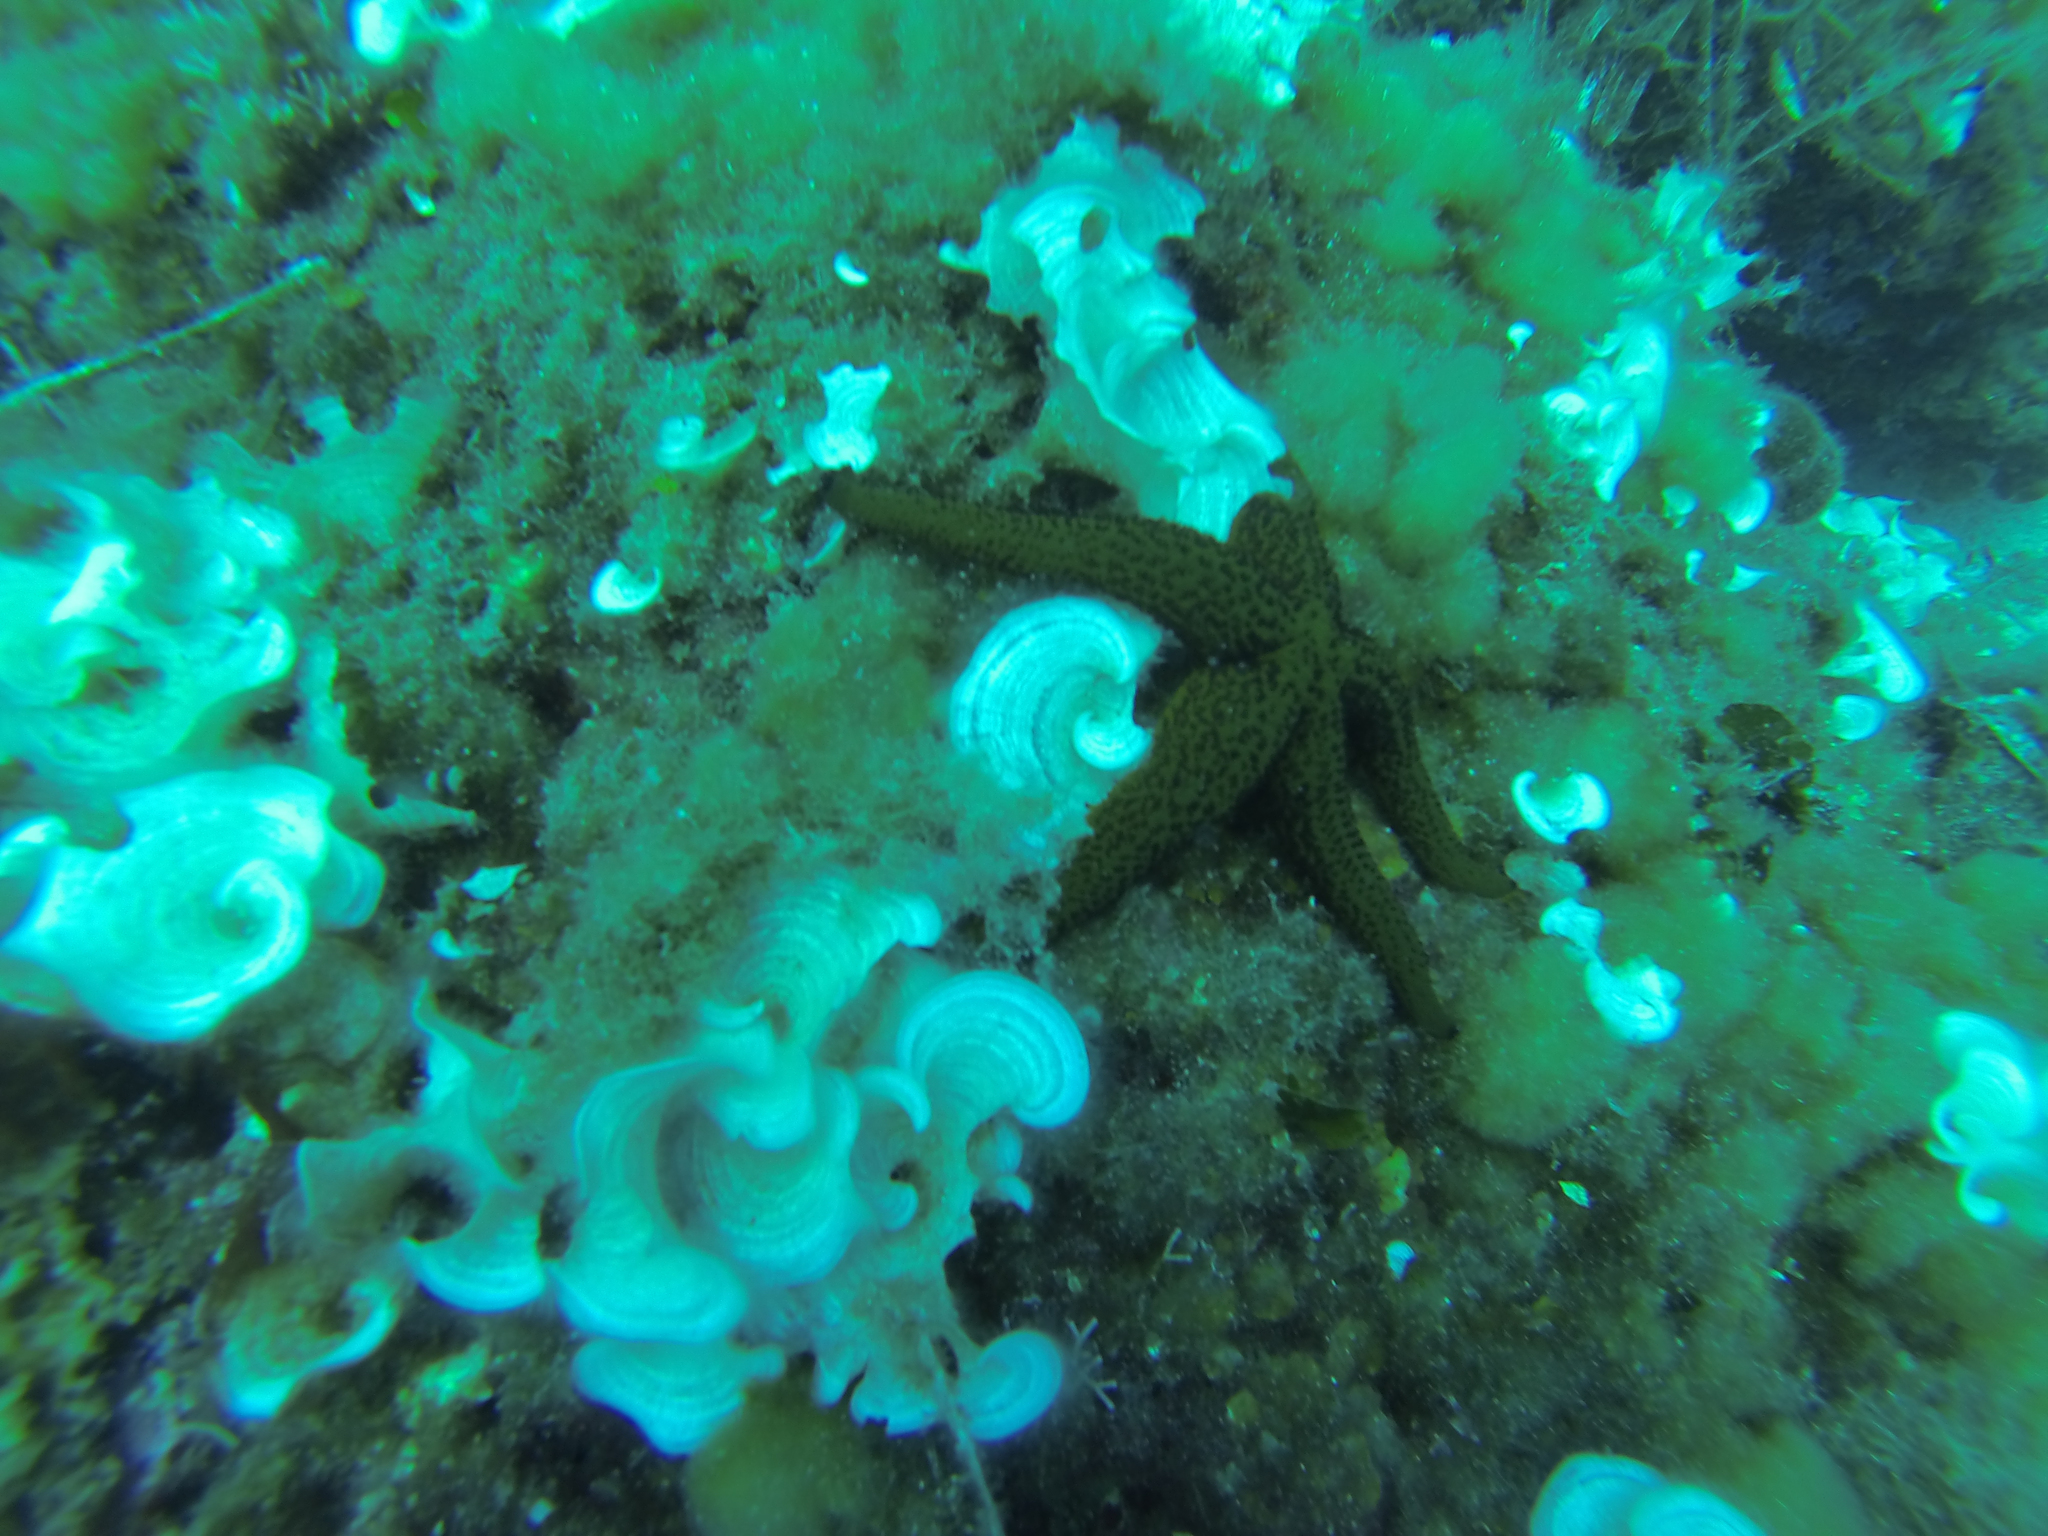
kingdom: Animalia
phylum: Echinodermata
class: Asteroidea
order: Spinulosida
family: Echinasteridae
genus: Echinaster
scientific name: Echinaster sepositus
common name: Red starfish
